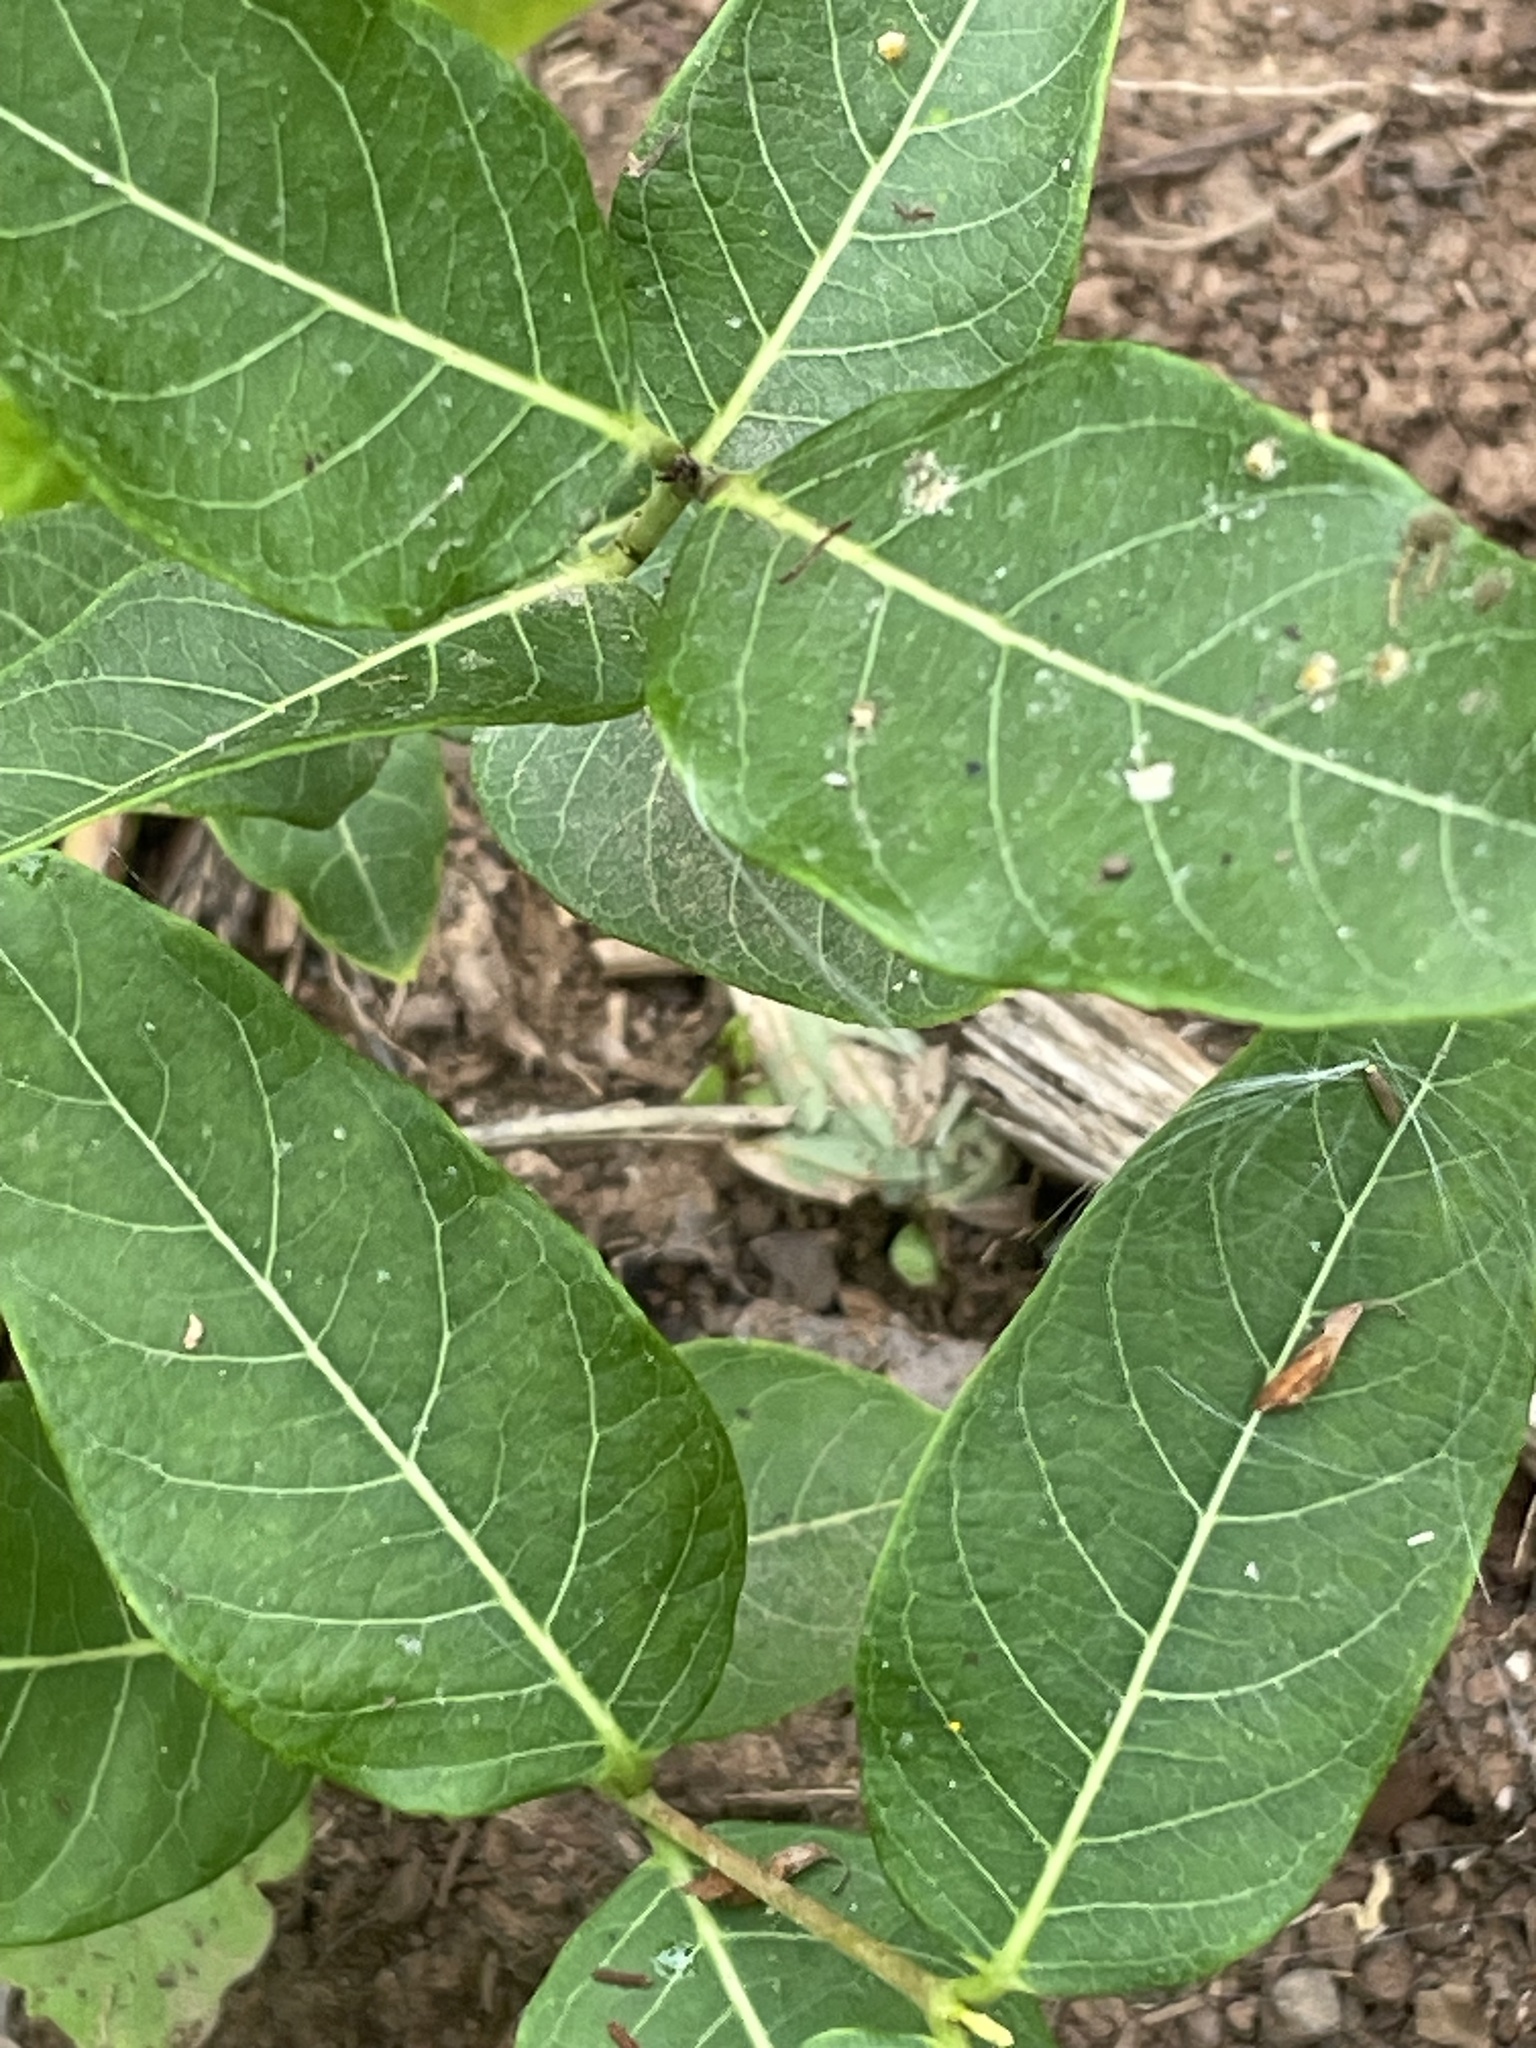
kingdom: Plantae
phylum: Tracheophyta
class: Magnoliopsida
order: Gentianales
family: Apocynaceae
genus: Apocynum
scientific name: Apocynum cannabinum
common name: Hemp dogbane
